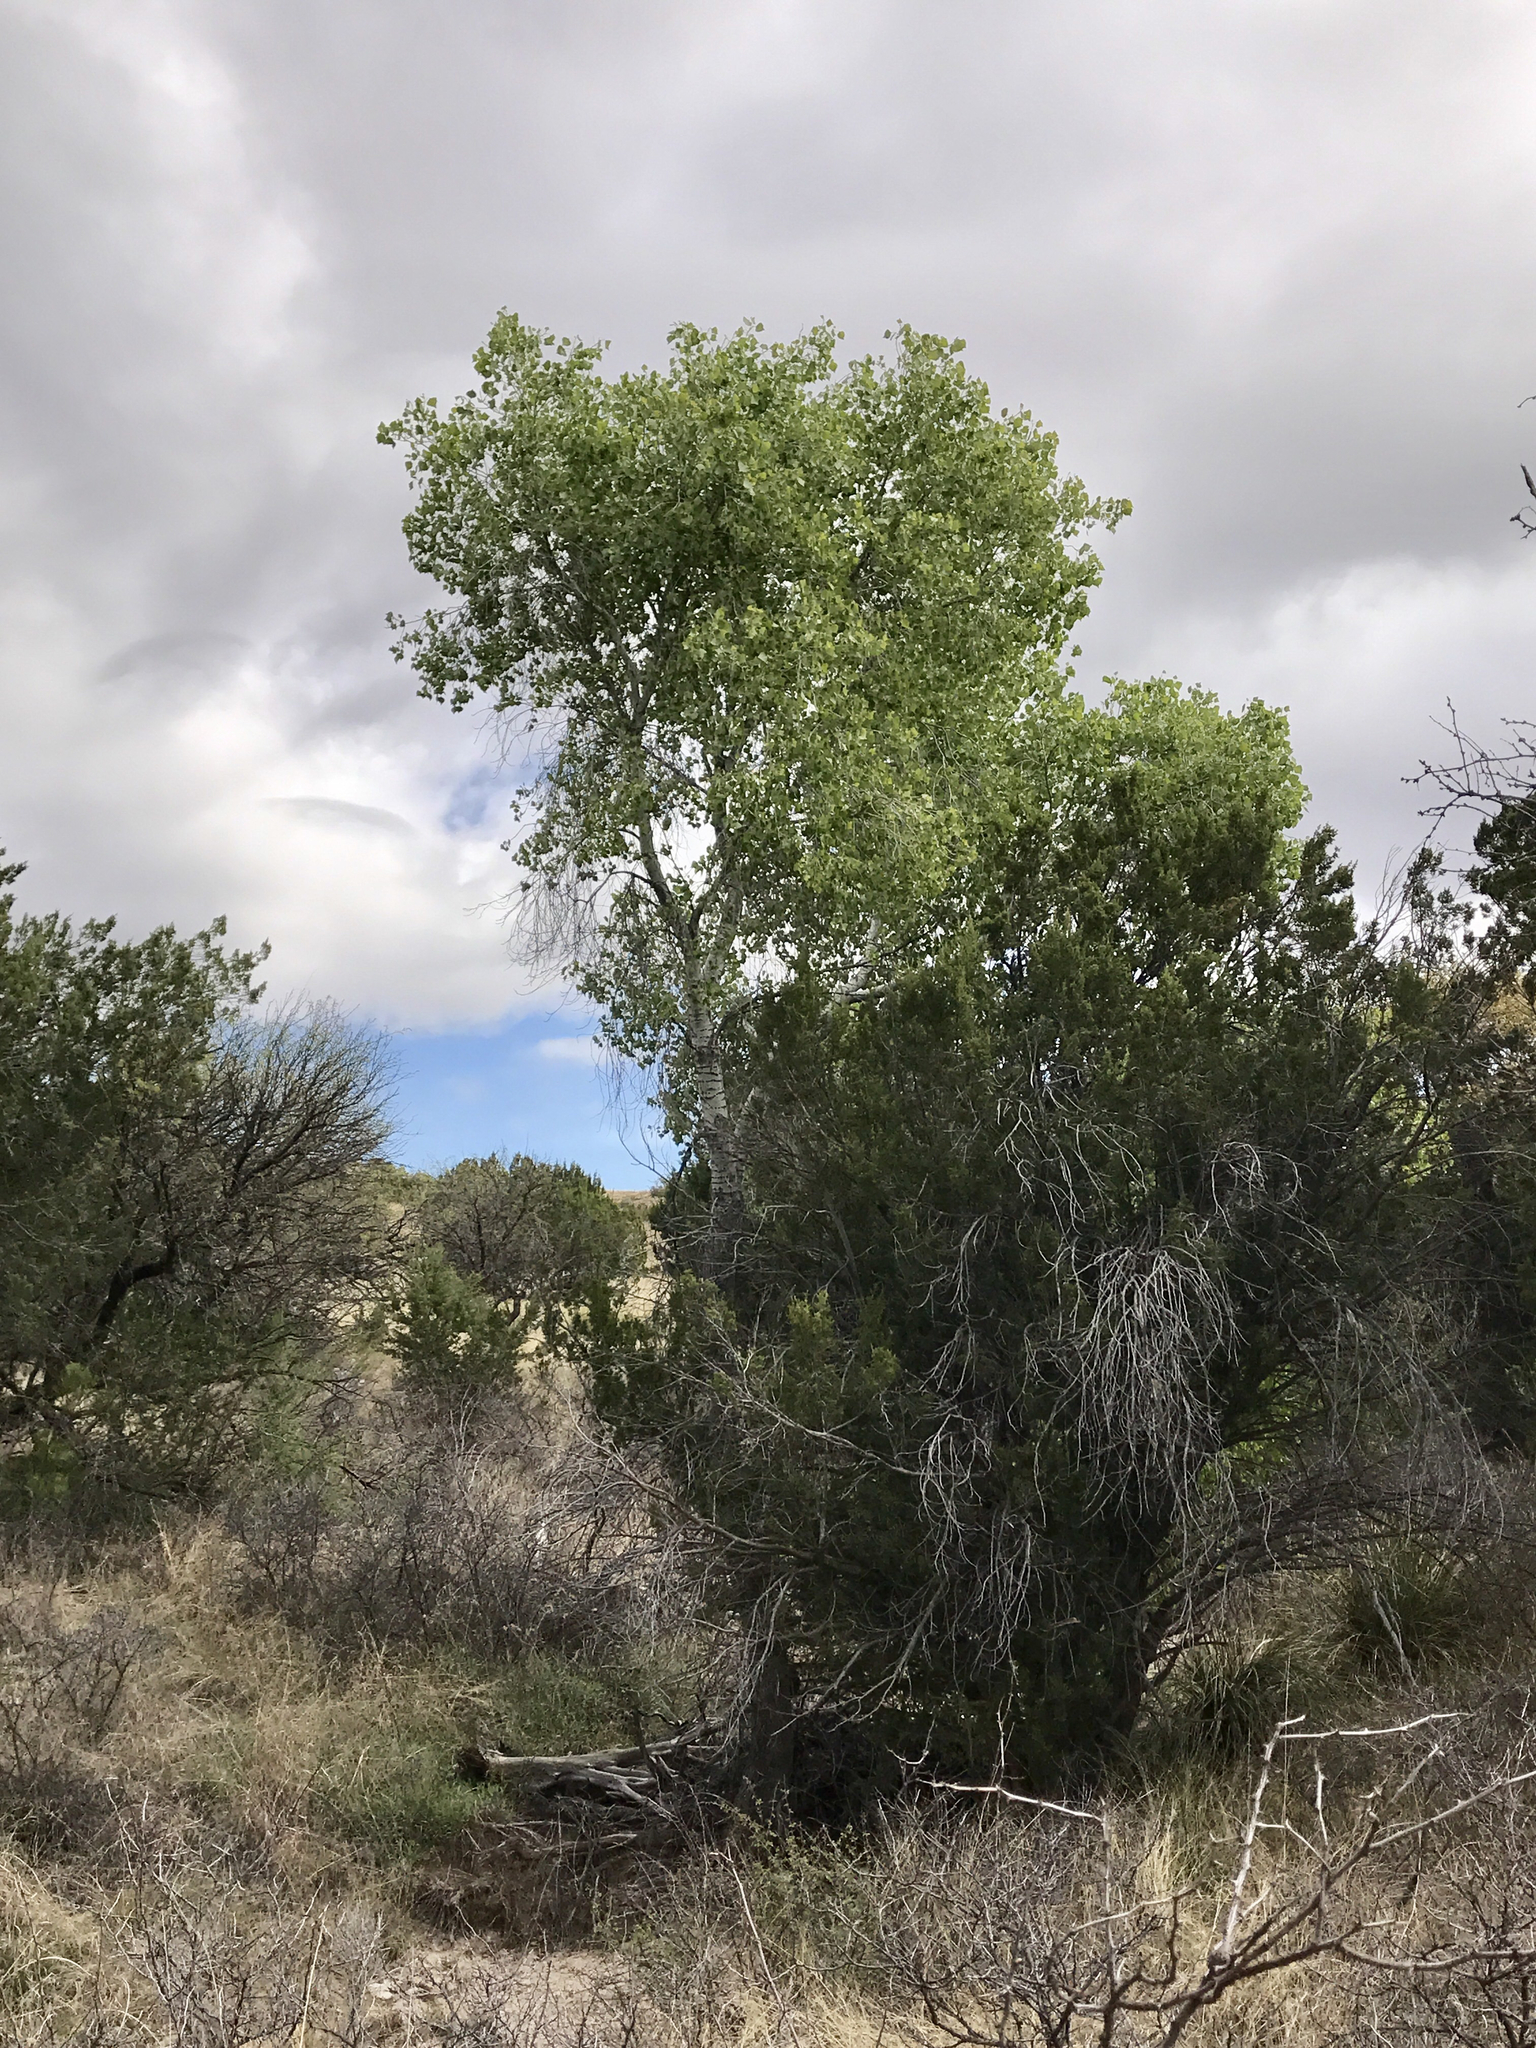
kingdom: Plantae
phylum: Tracheophyta
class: Magnoliopsida
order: Malpighiales
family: Salicaceae
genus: Populus
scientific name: Populus fremontii
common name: Fremont's cottonwood
